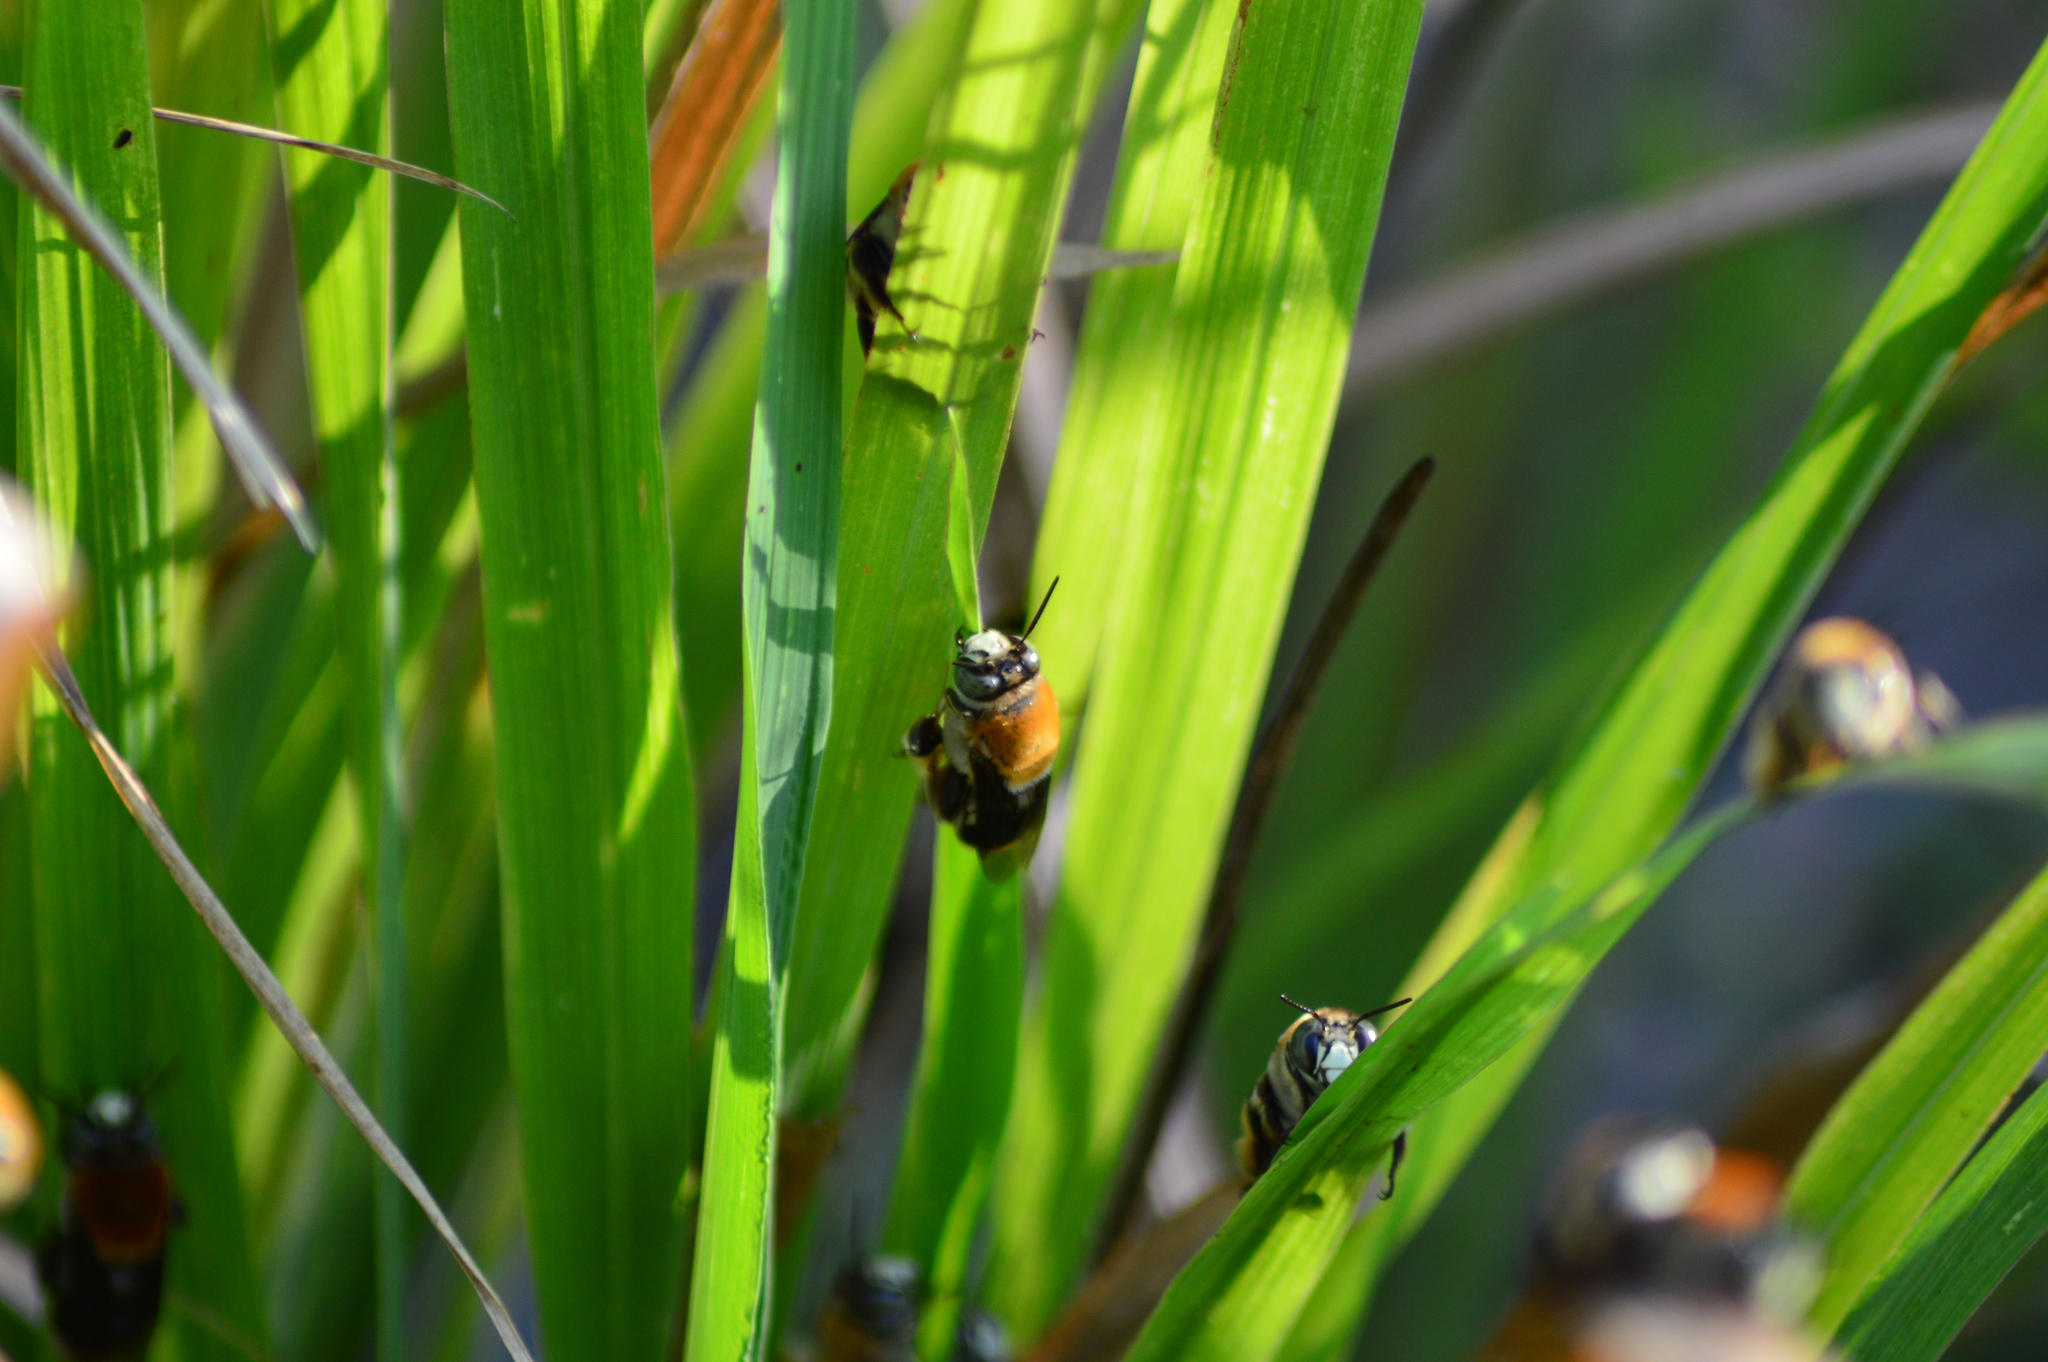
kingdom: Animalia
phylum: Arthropoda
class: Insecta
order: Hymenoptera
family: Apidae
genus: Centris
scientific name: Centris decolorata
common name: Crazy beach bee
